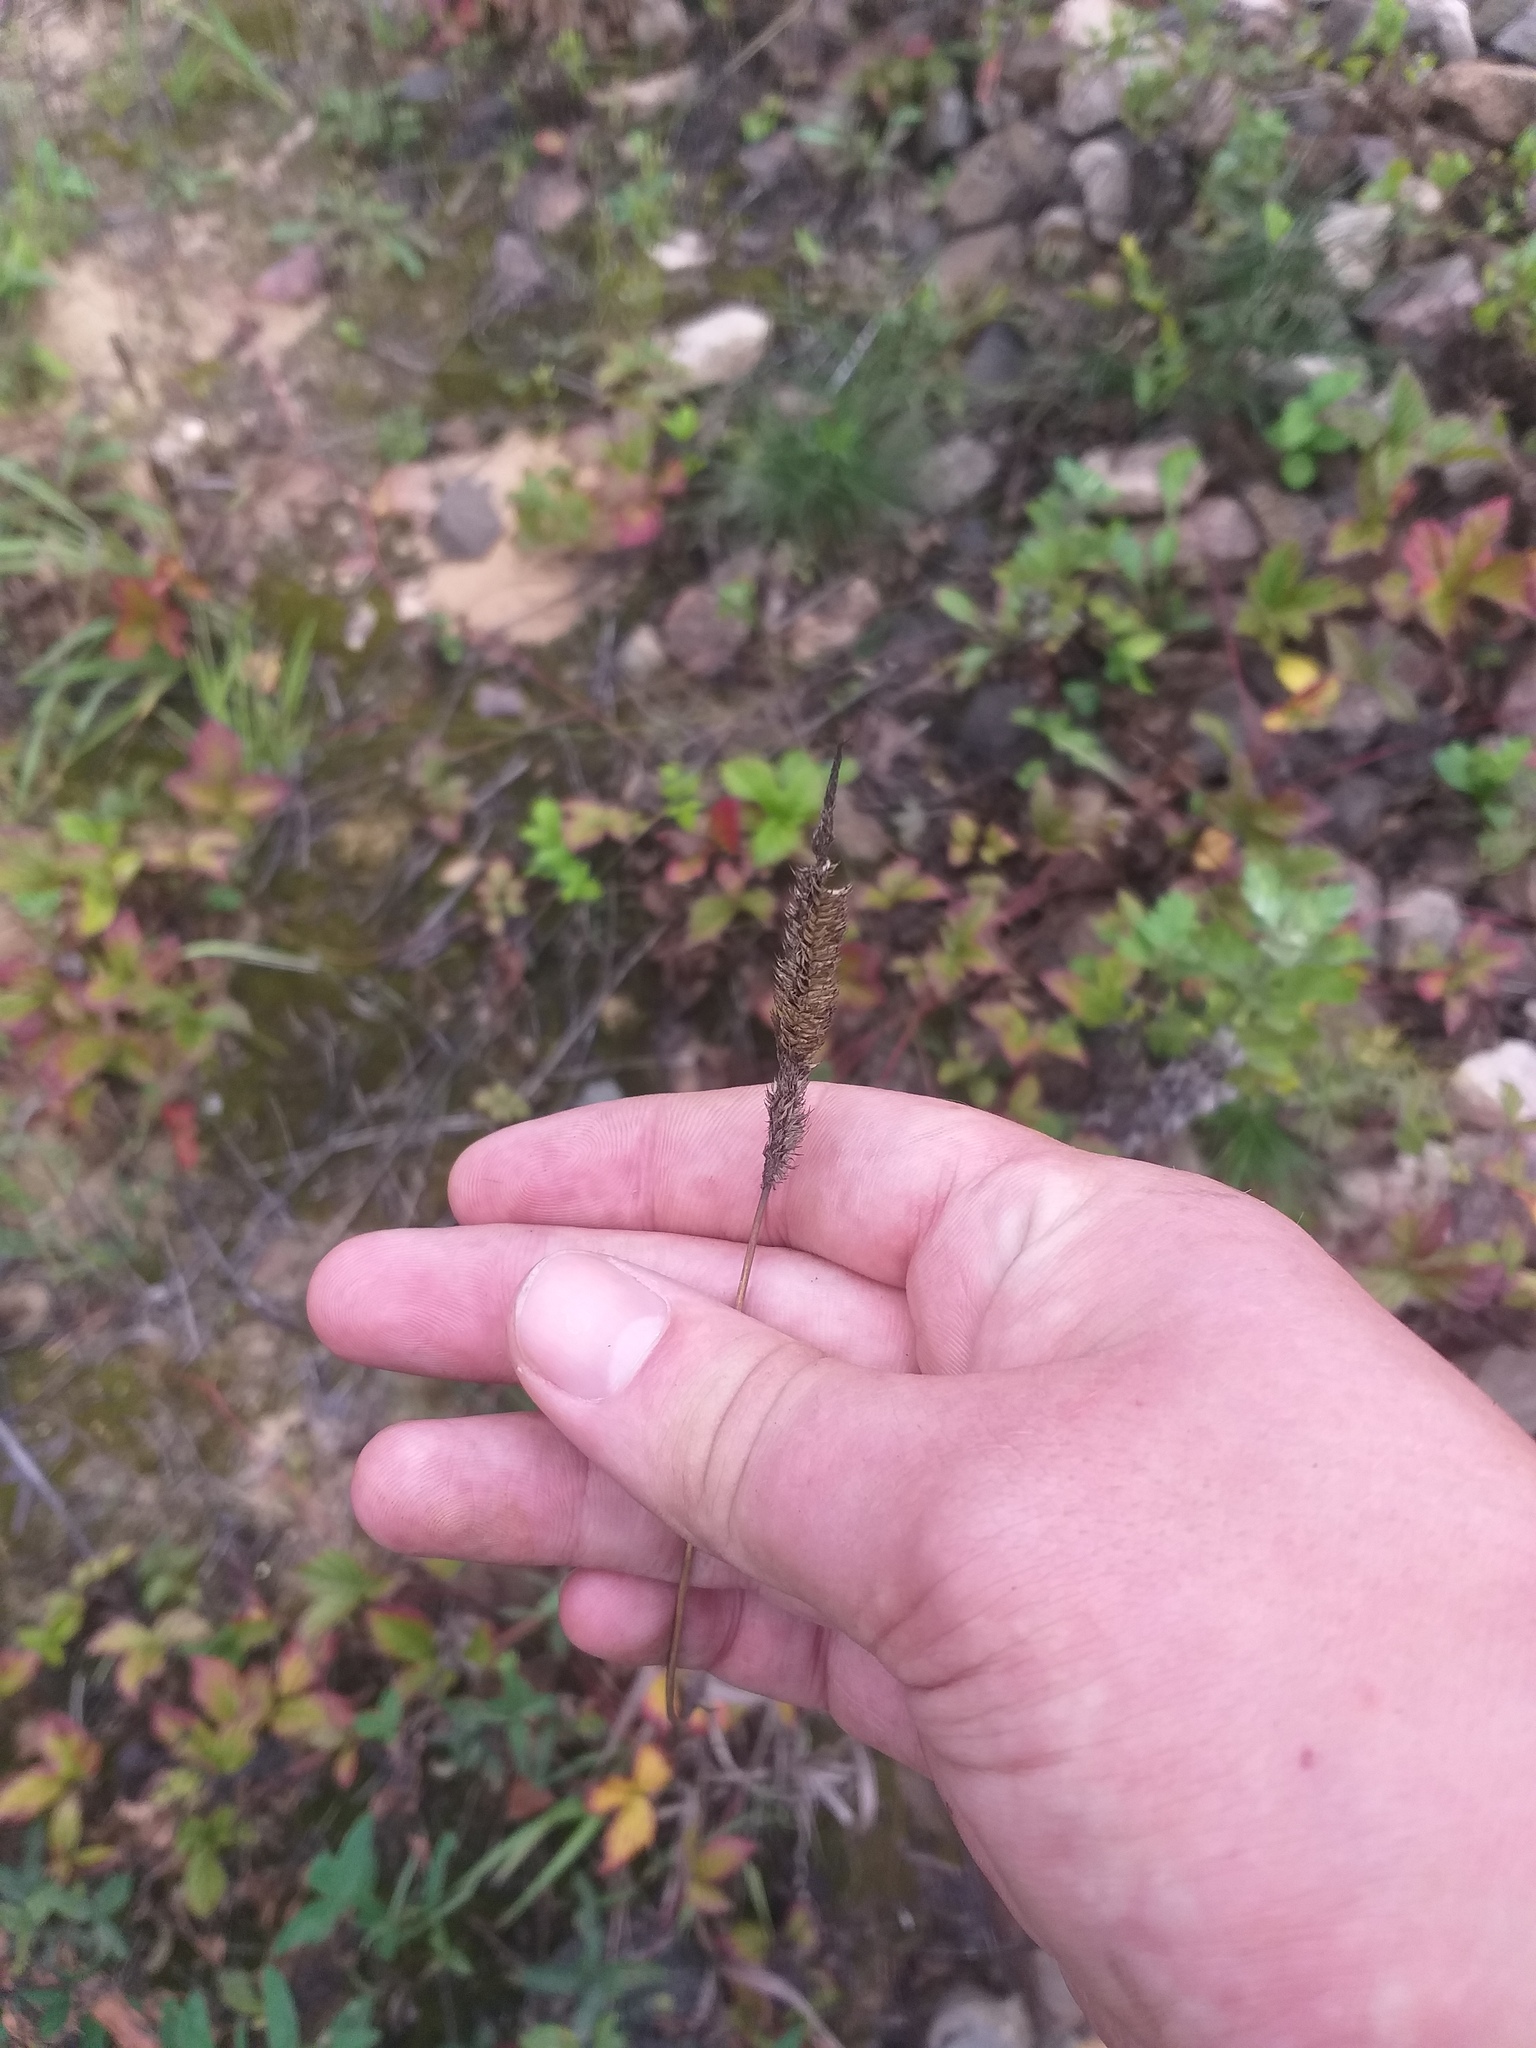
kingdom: Plantae
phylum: Tracheophyta
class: Liliopsida
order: Poales
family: Poaceae
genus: Phleum
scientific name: Phleum pratense
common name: Timothy grass
